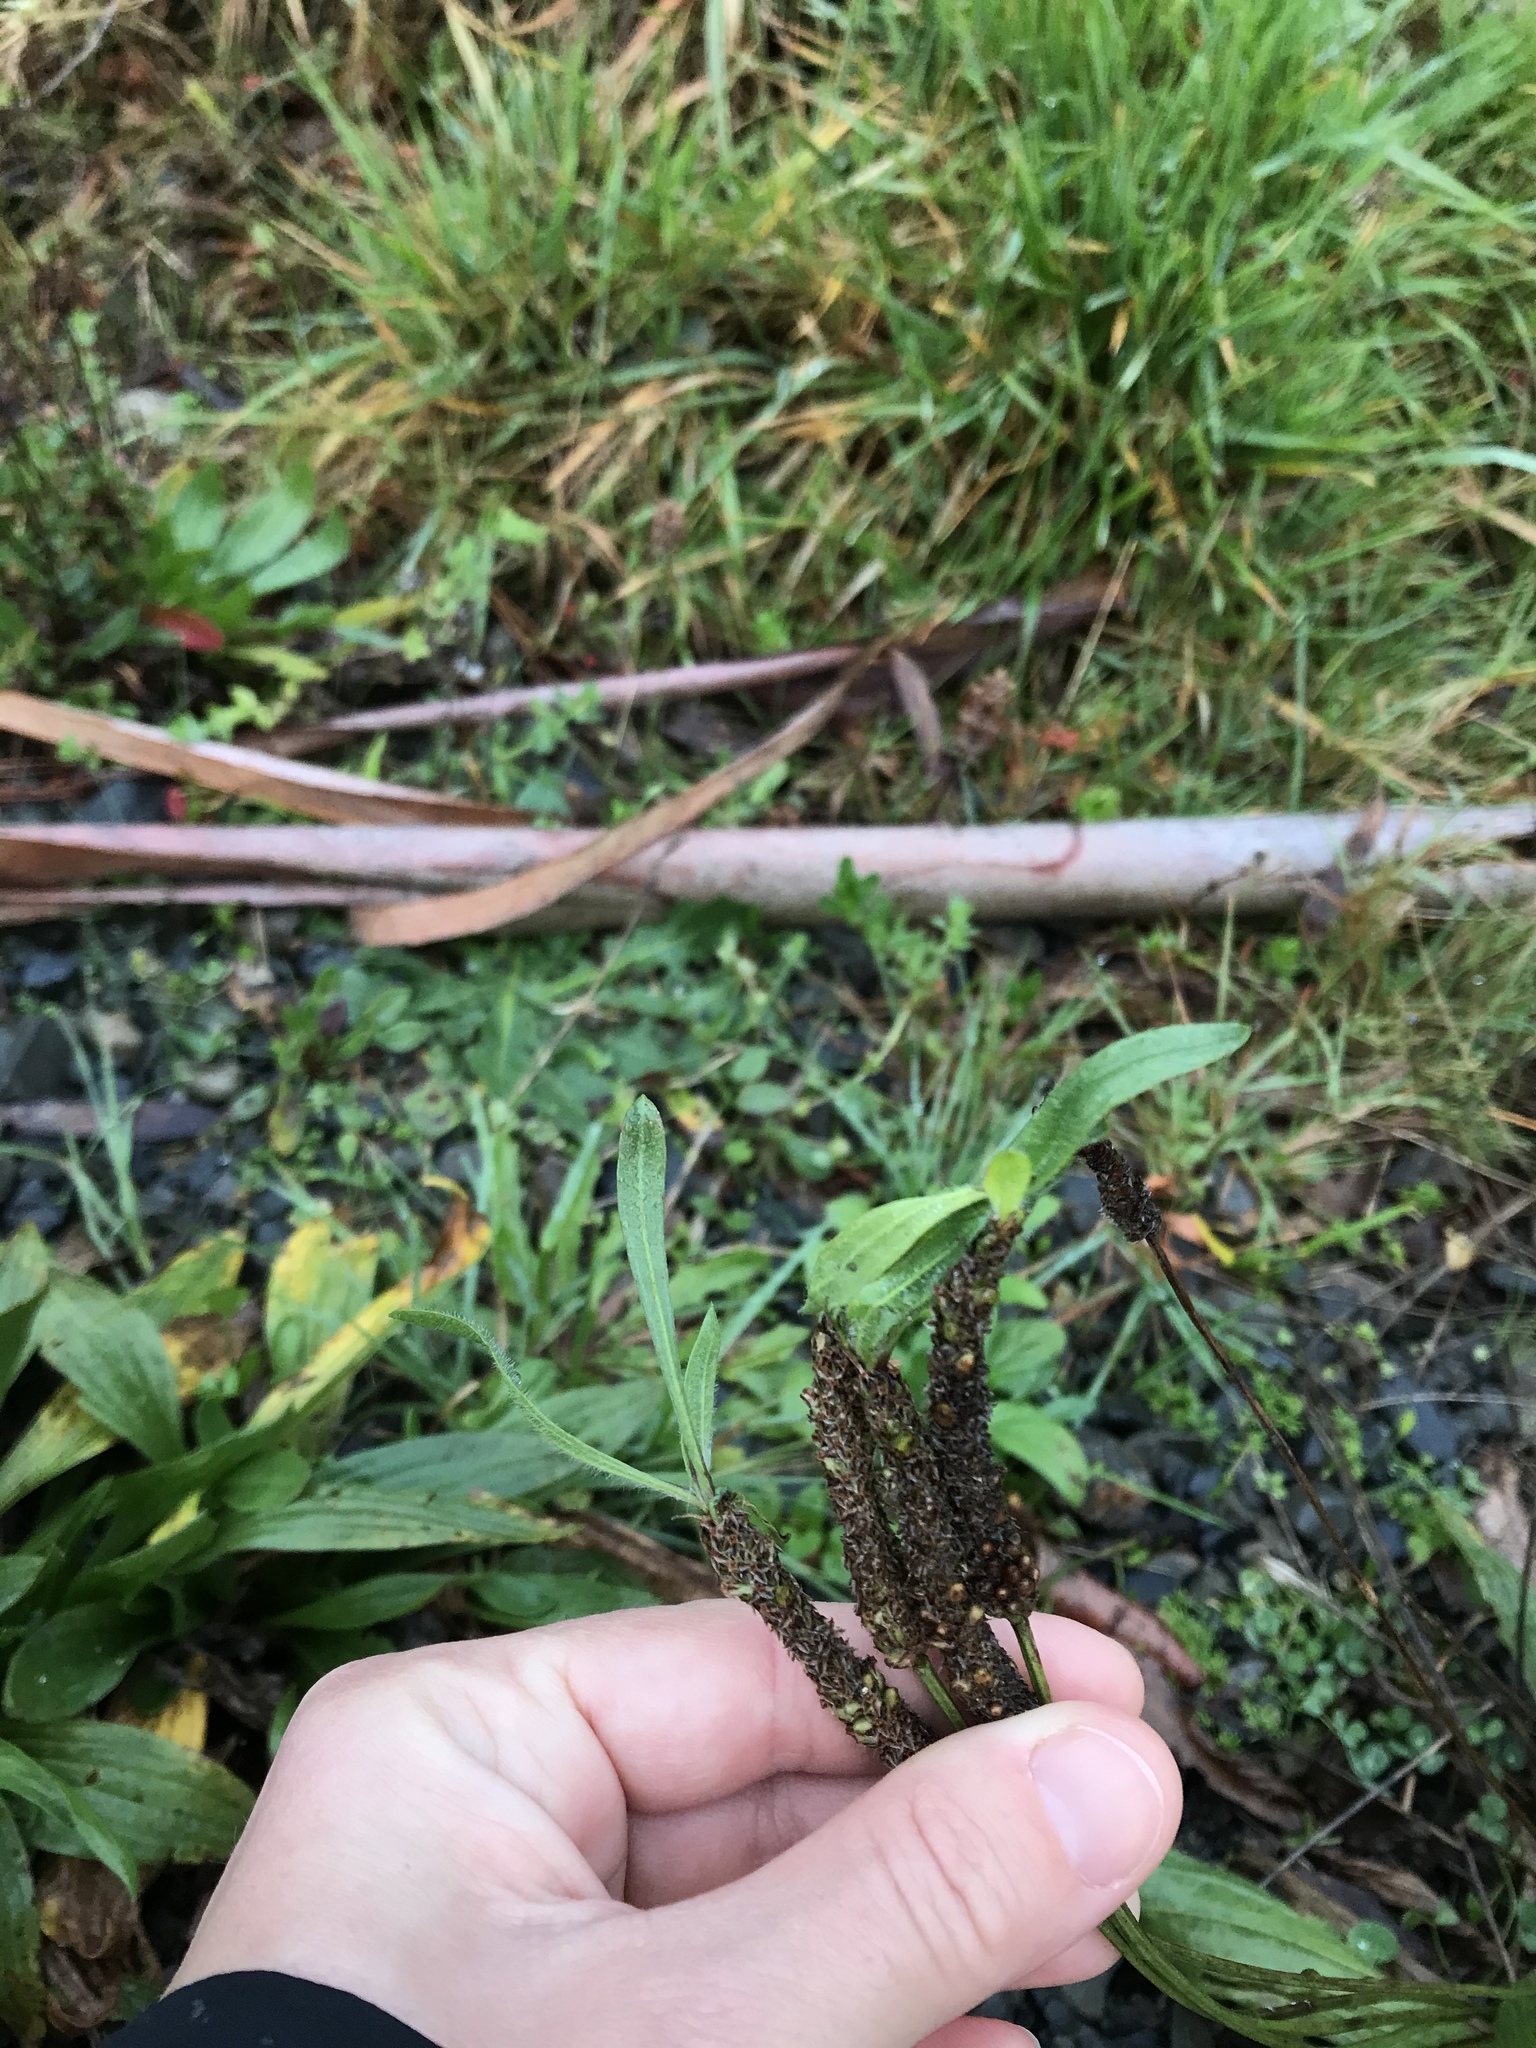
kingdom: Plantae
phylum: Tracheophyta
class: Magnoliopsida
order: Lamiales
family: Plantaginaceae
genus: Plantago
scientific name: Plantago lanceolata
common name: Ribwort plantain
